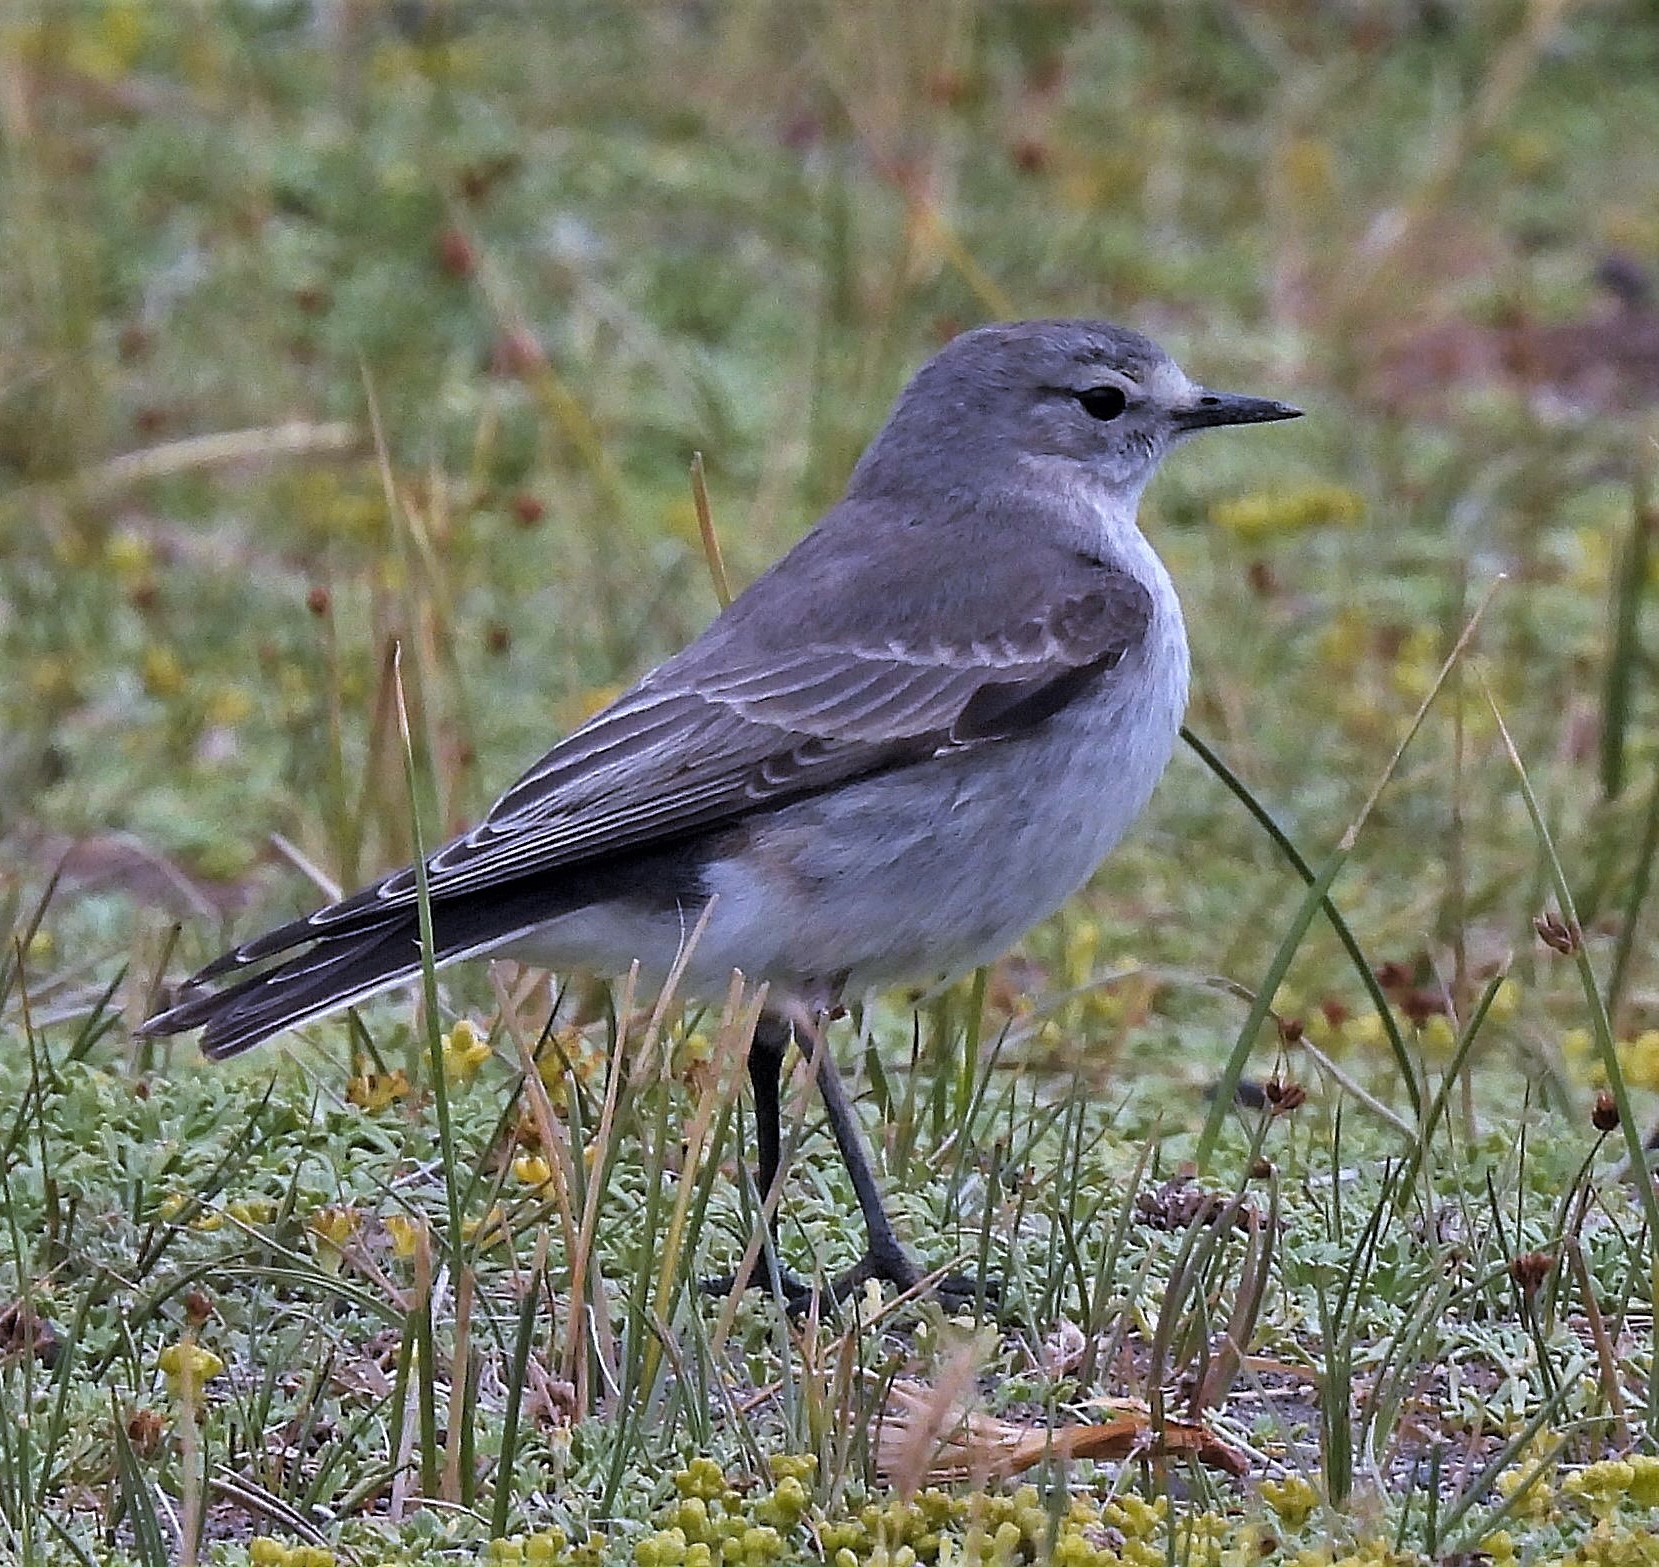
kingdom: Animalia
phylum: Chordata
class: Aves
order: Passeriformes
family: Tyrannidae
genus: Muscisaxicola
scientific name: Muscisaxicola flavinucha
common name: Ochre-naped ground tyrant
